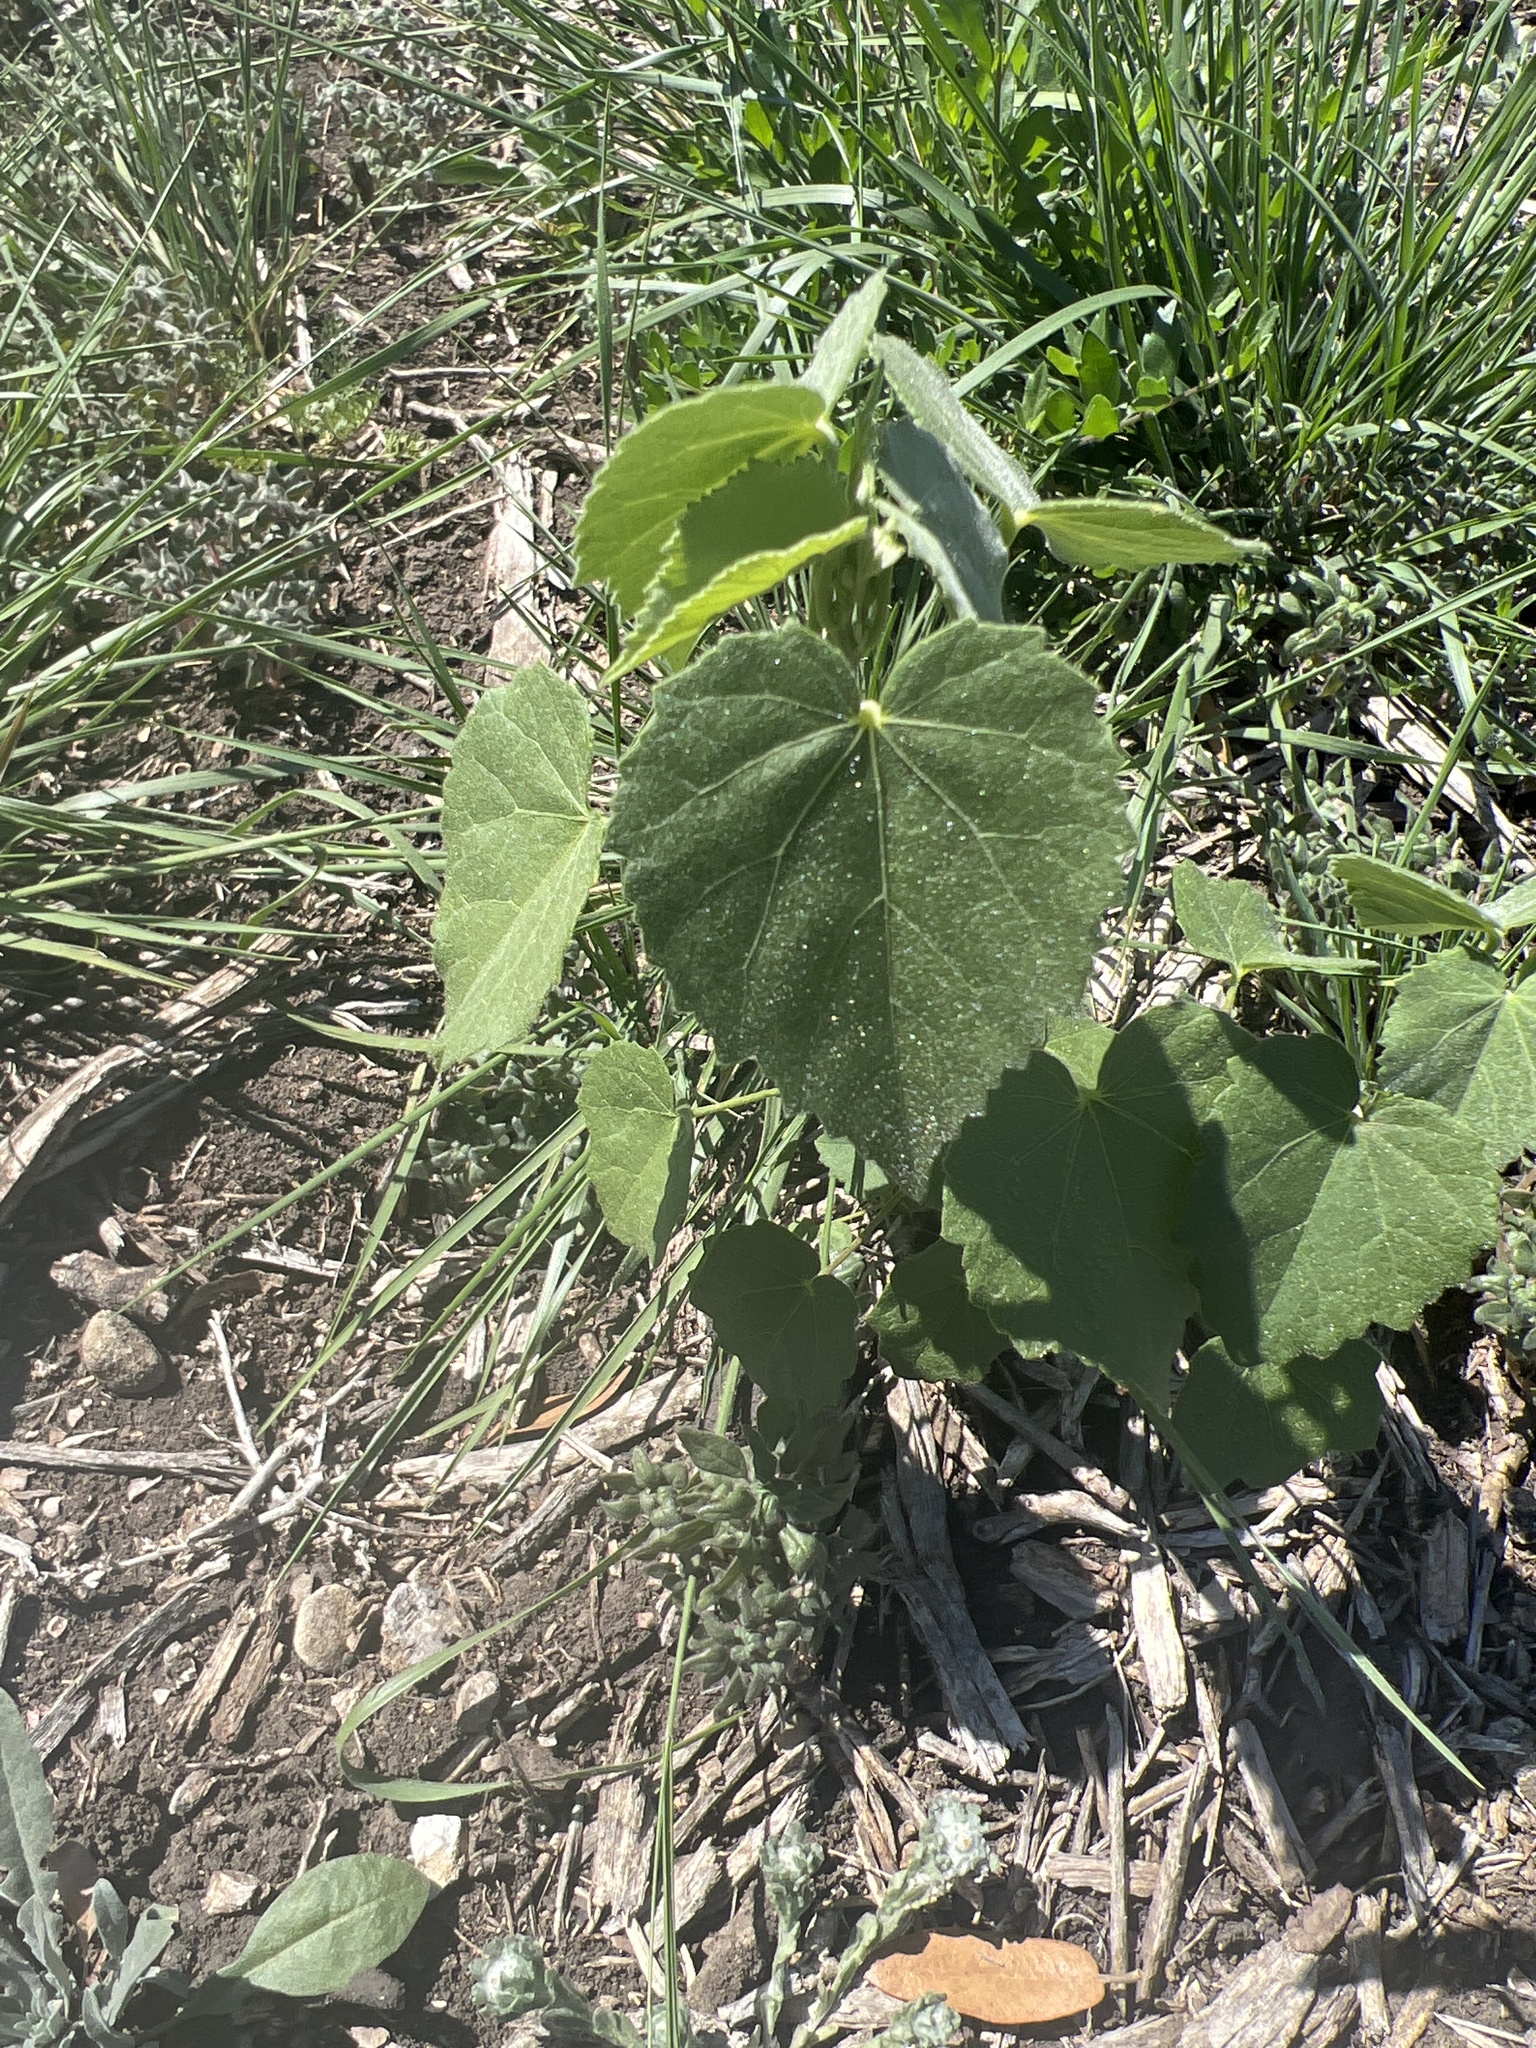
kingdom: Plantae
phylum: Tracheophyta
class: Magnoliopsida
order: Malvales
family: Malvaceae
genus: Abutilon
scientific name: Abutilon fruticosum
